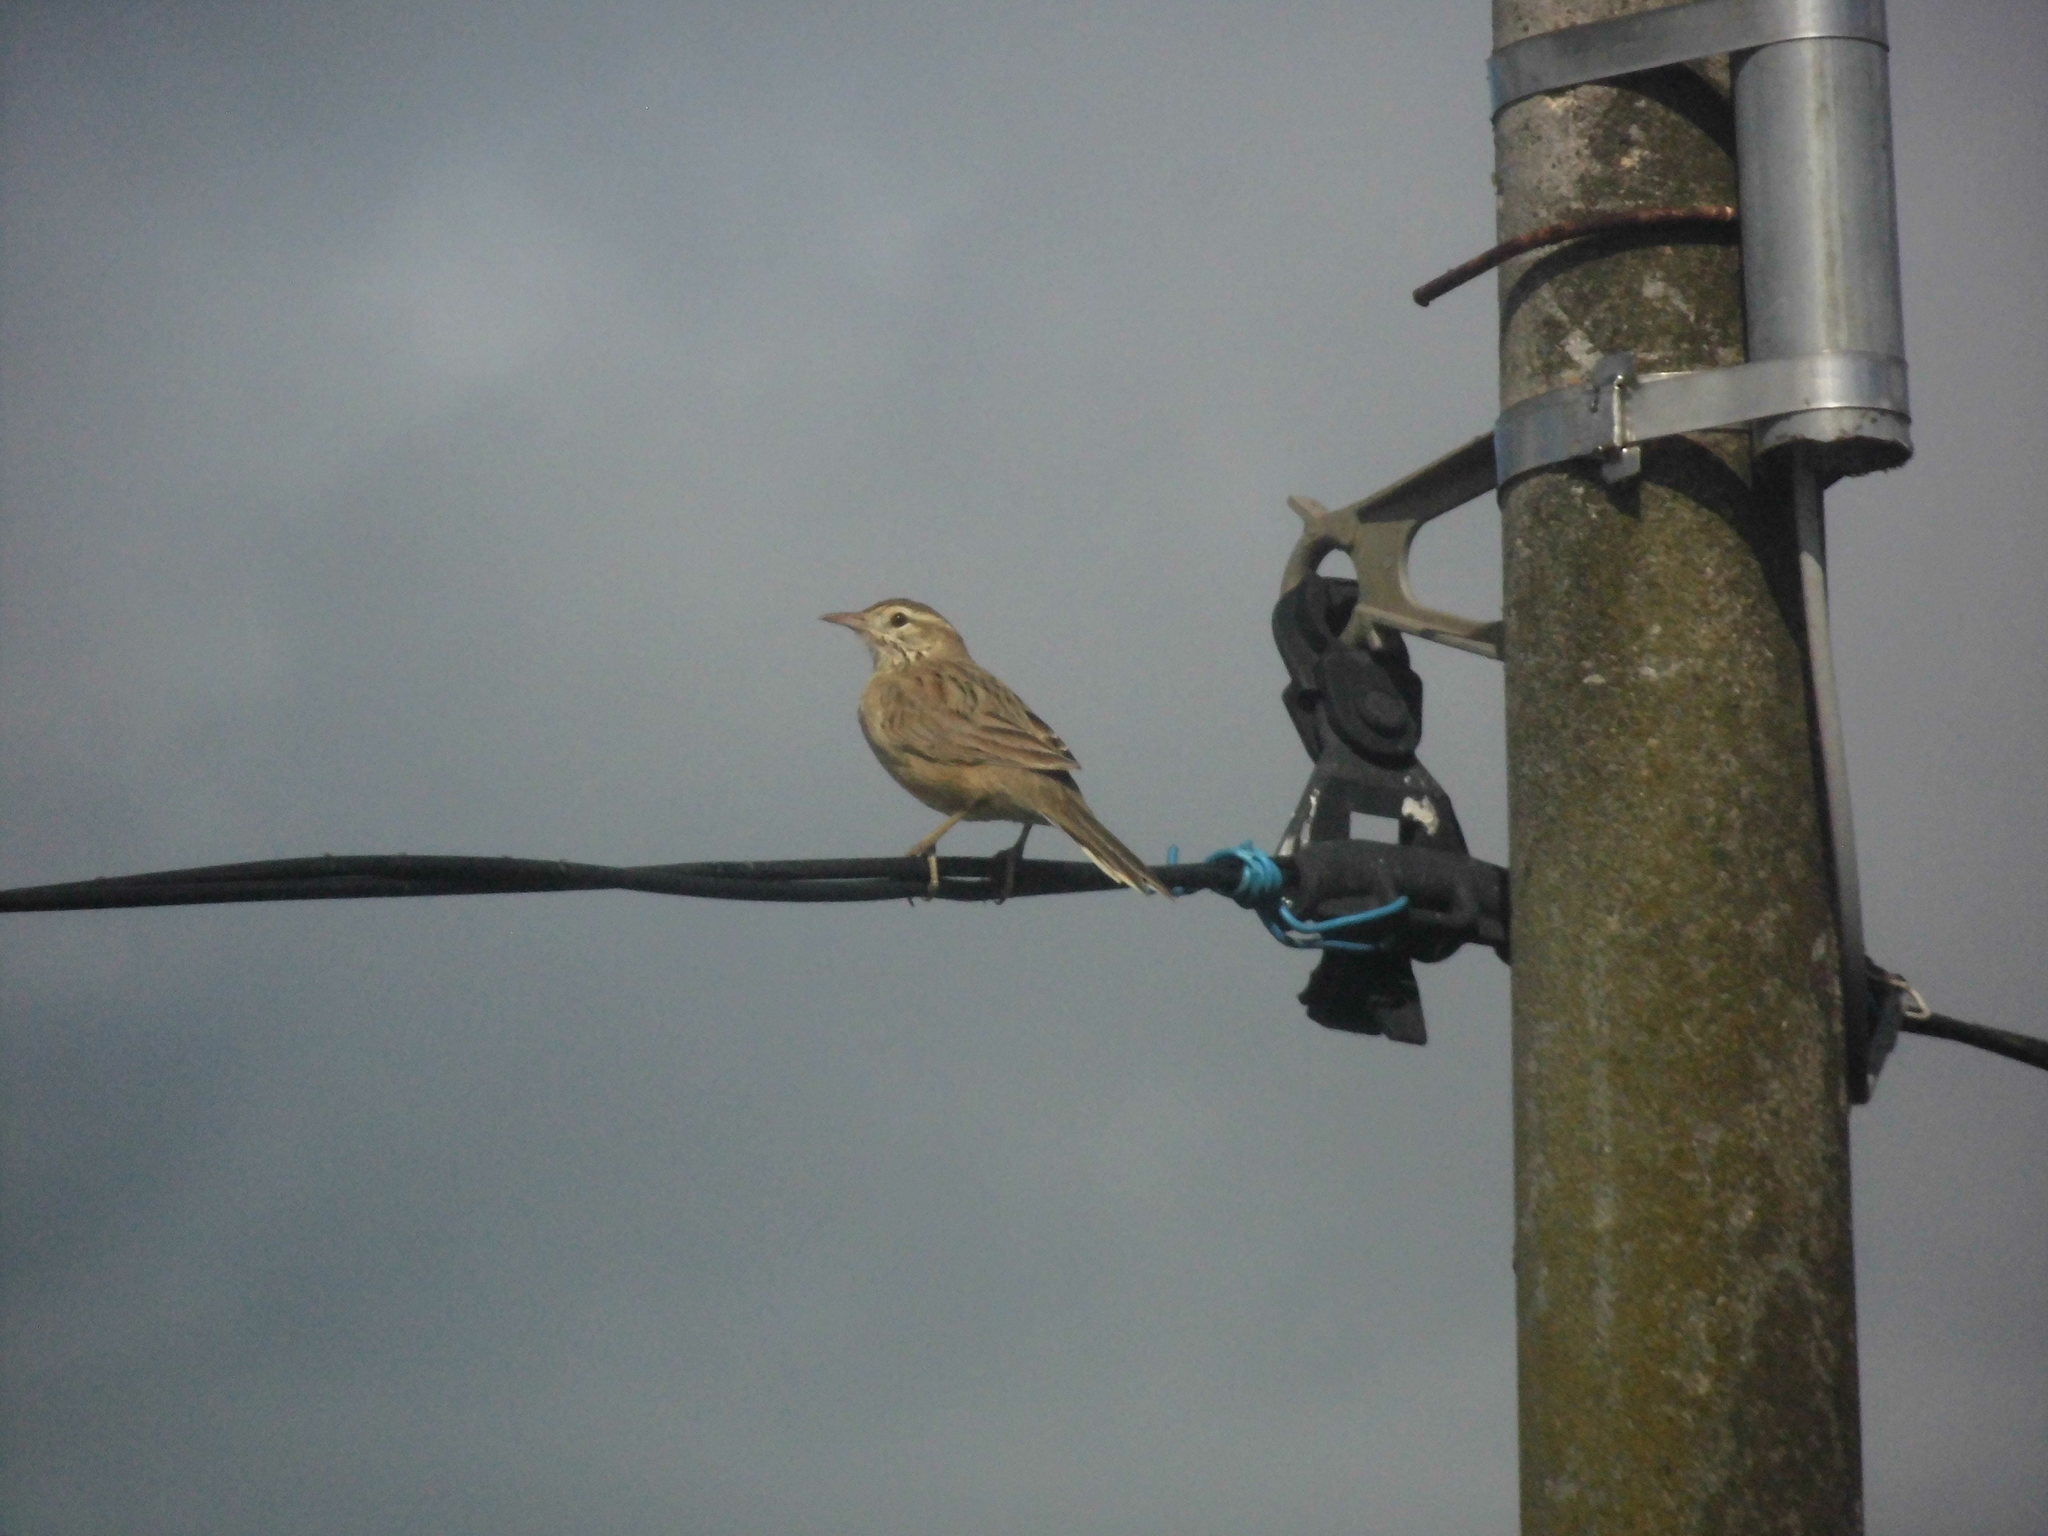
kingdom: Animalia
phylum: Chordata
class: Aves
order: Passeriformes
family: Furnariidae
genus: Anumbius
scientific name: Anumbius annumbi
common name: Firewood-gatherer
